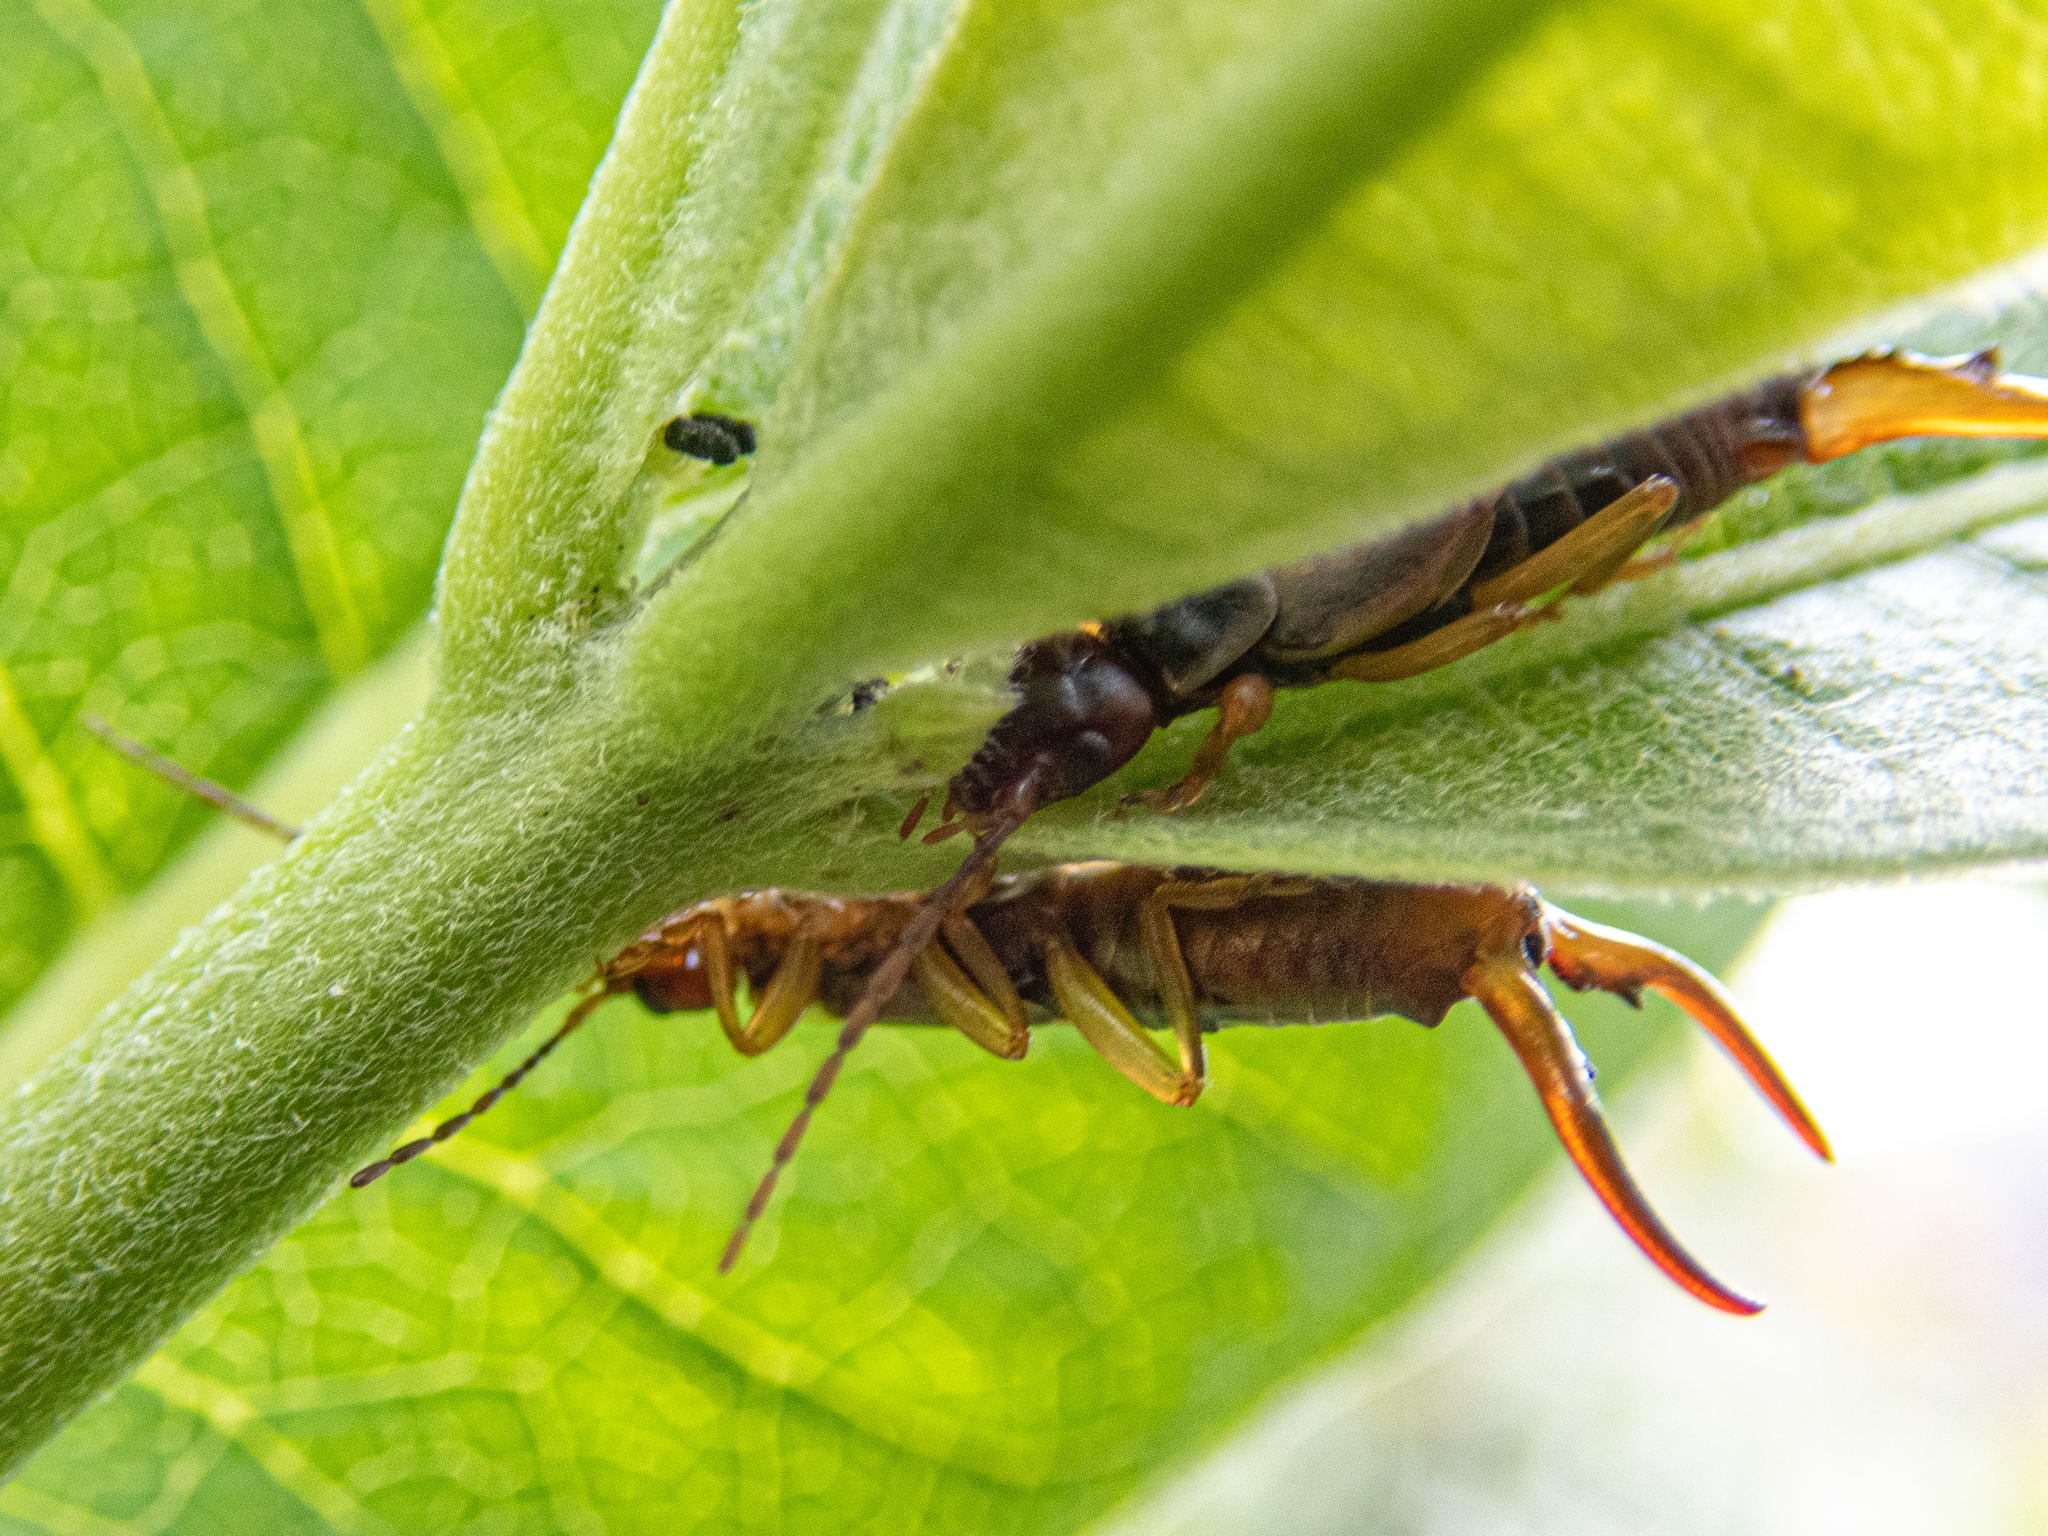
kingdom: Animalia
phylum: Arthropoda
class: Insecta
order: Dermaptera
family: Forficulidae
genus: Forficula
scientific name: Forficula
